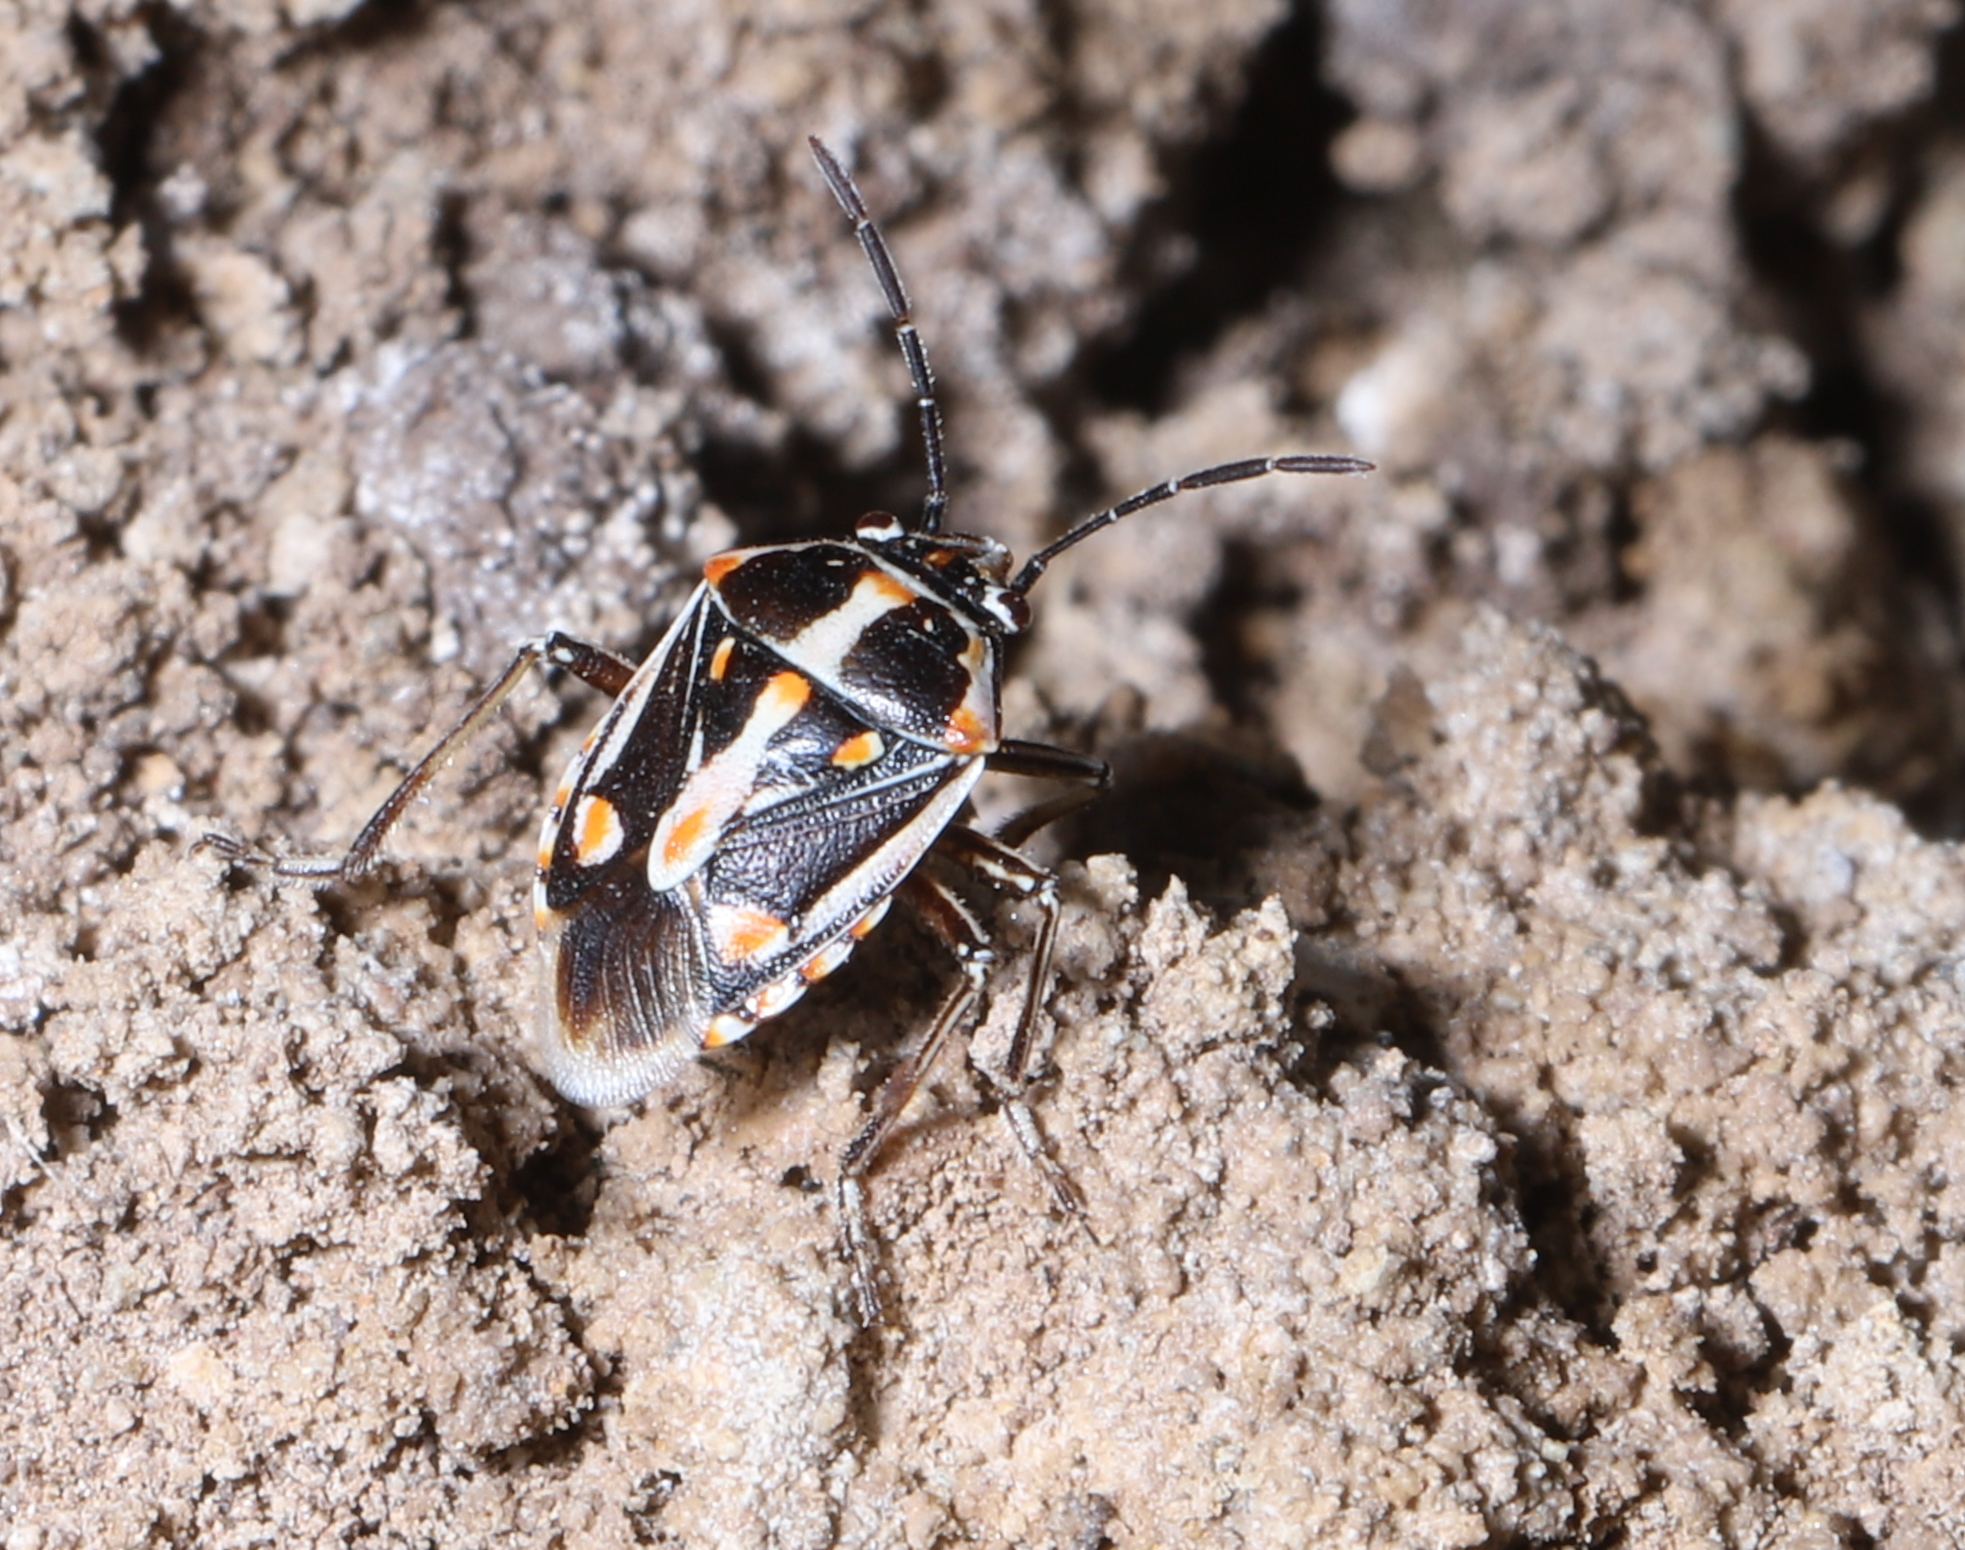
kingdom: Animalia
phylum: Arthropoda
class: Insecta
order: Hemiptera
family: Pentatomidae
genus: Bagrada
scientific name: Bagrada hilaris
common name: Bagrada bug
